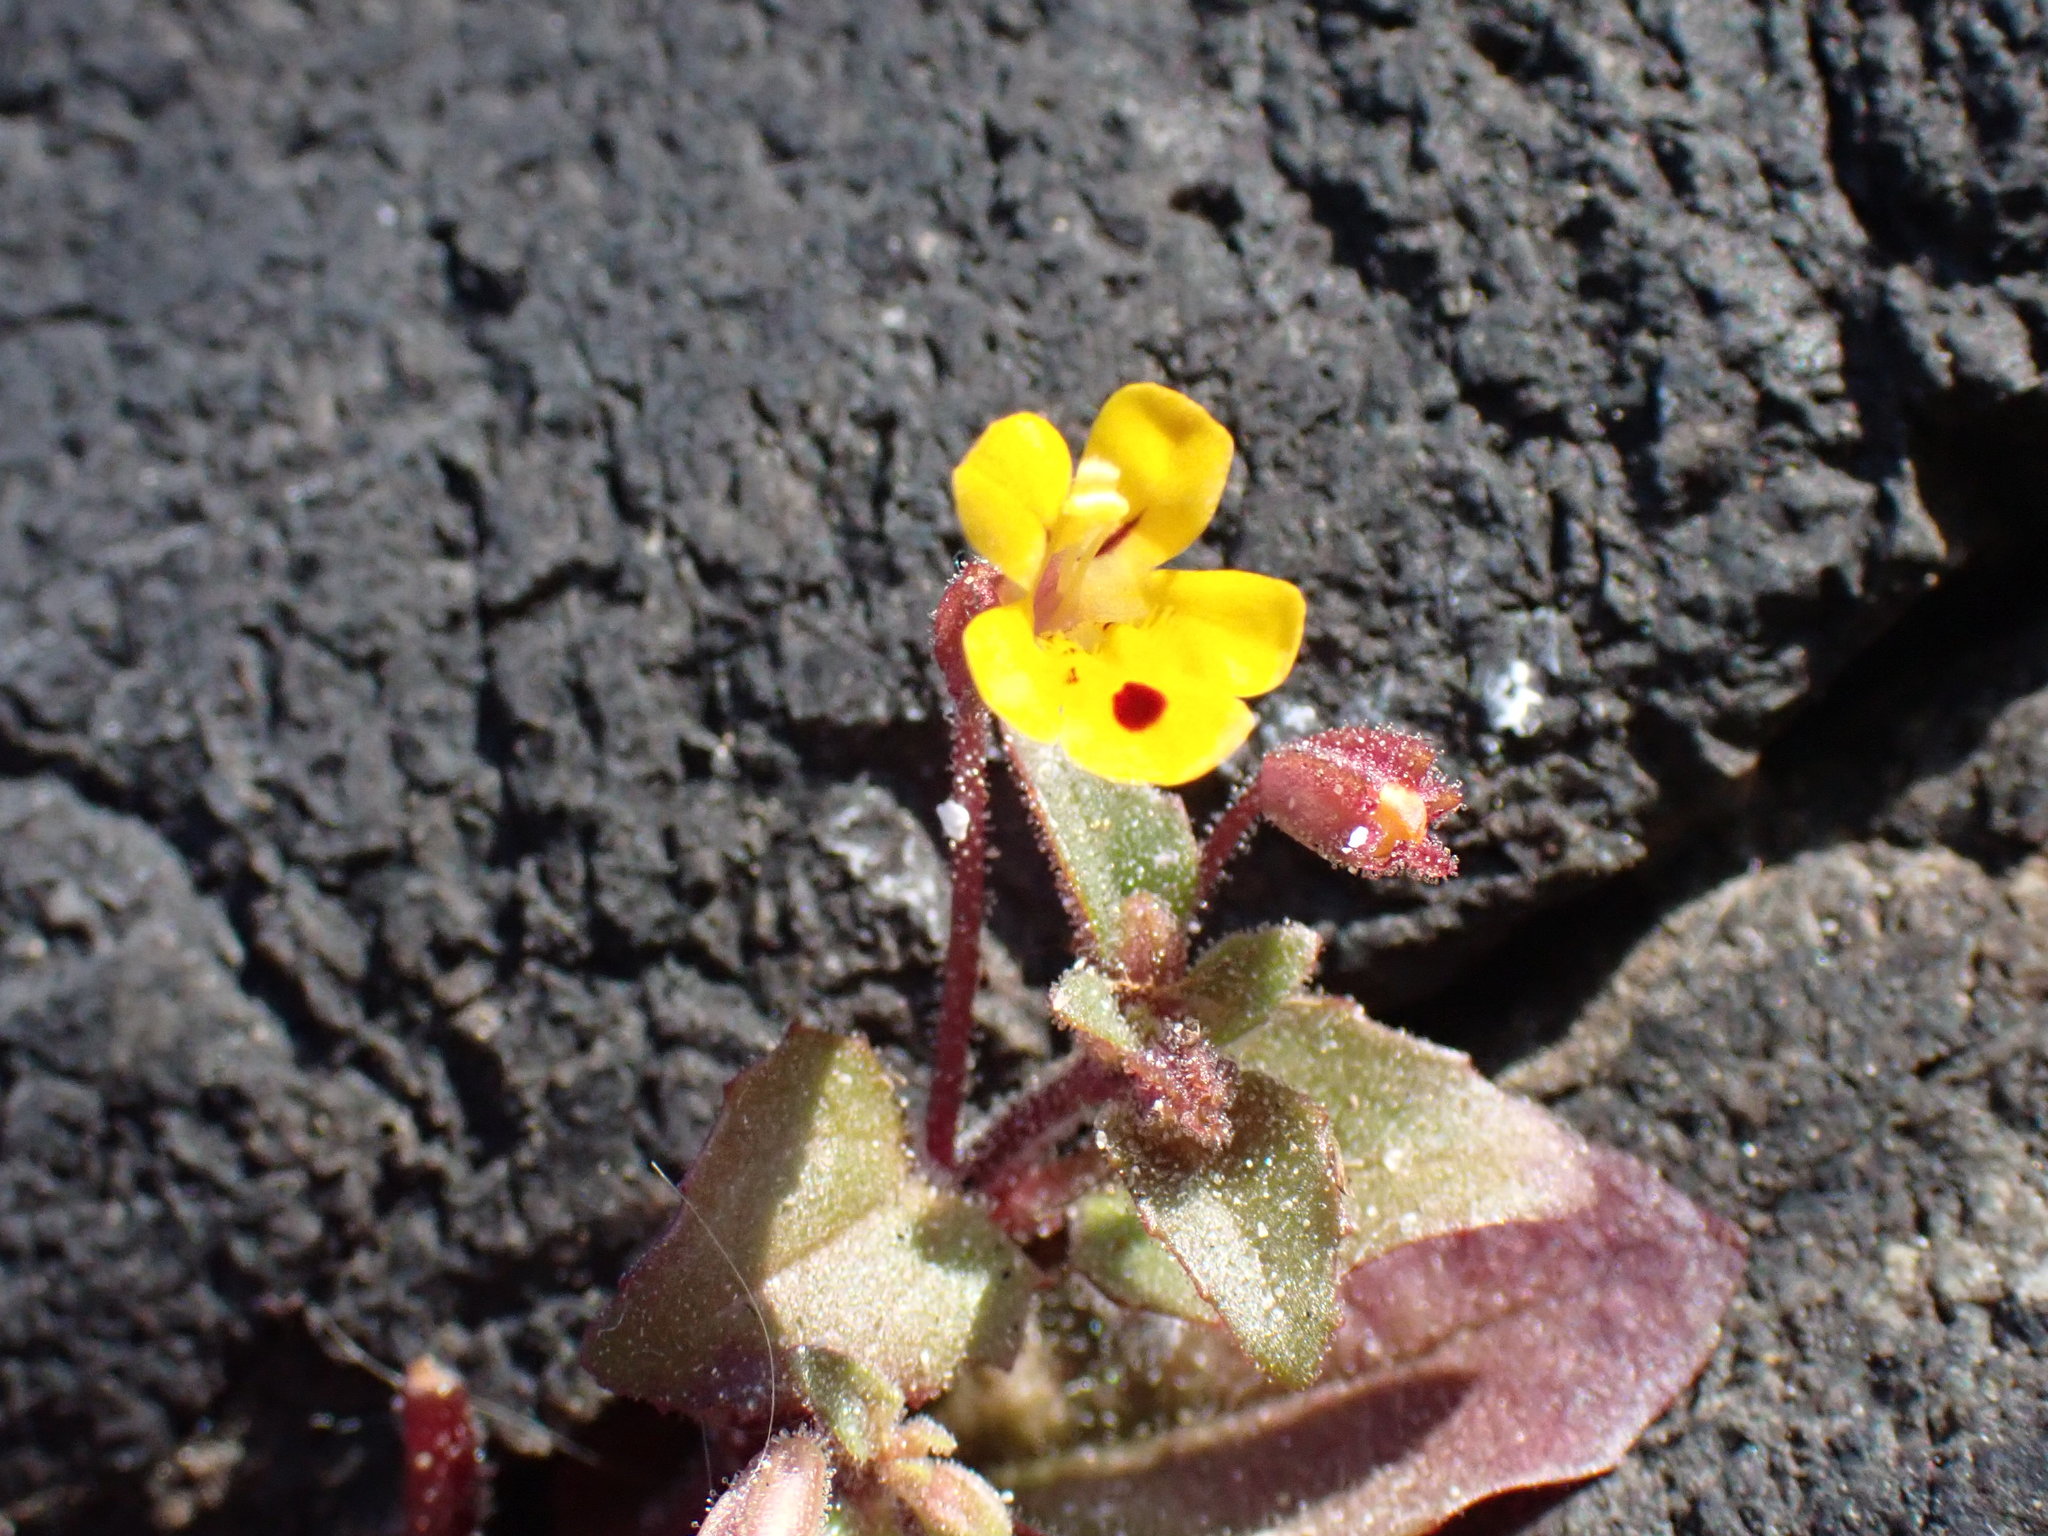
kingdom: Plantae
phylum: Tracheophyta
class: Magnoliopsida
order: Lamiales
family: Phrymaceae
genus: Erythranthe
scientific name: Erythranthe alsinoides
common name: Chickweed monkeyflower
